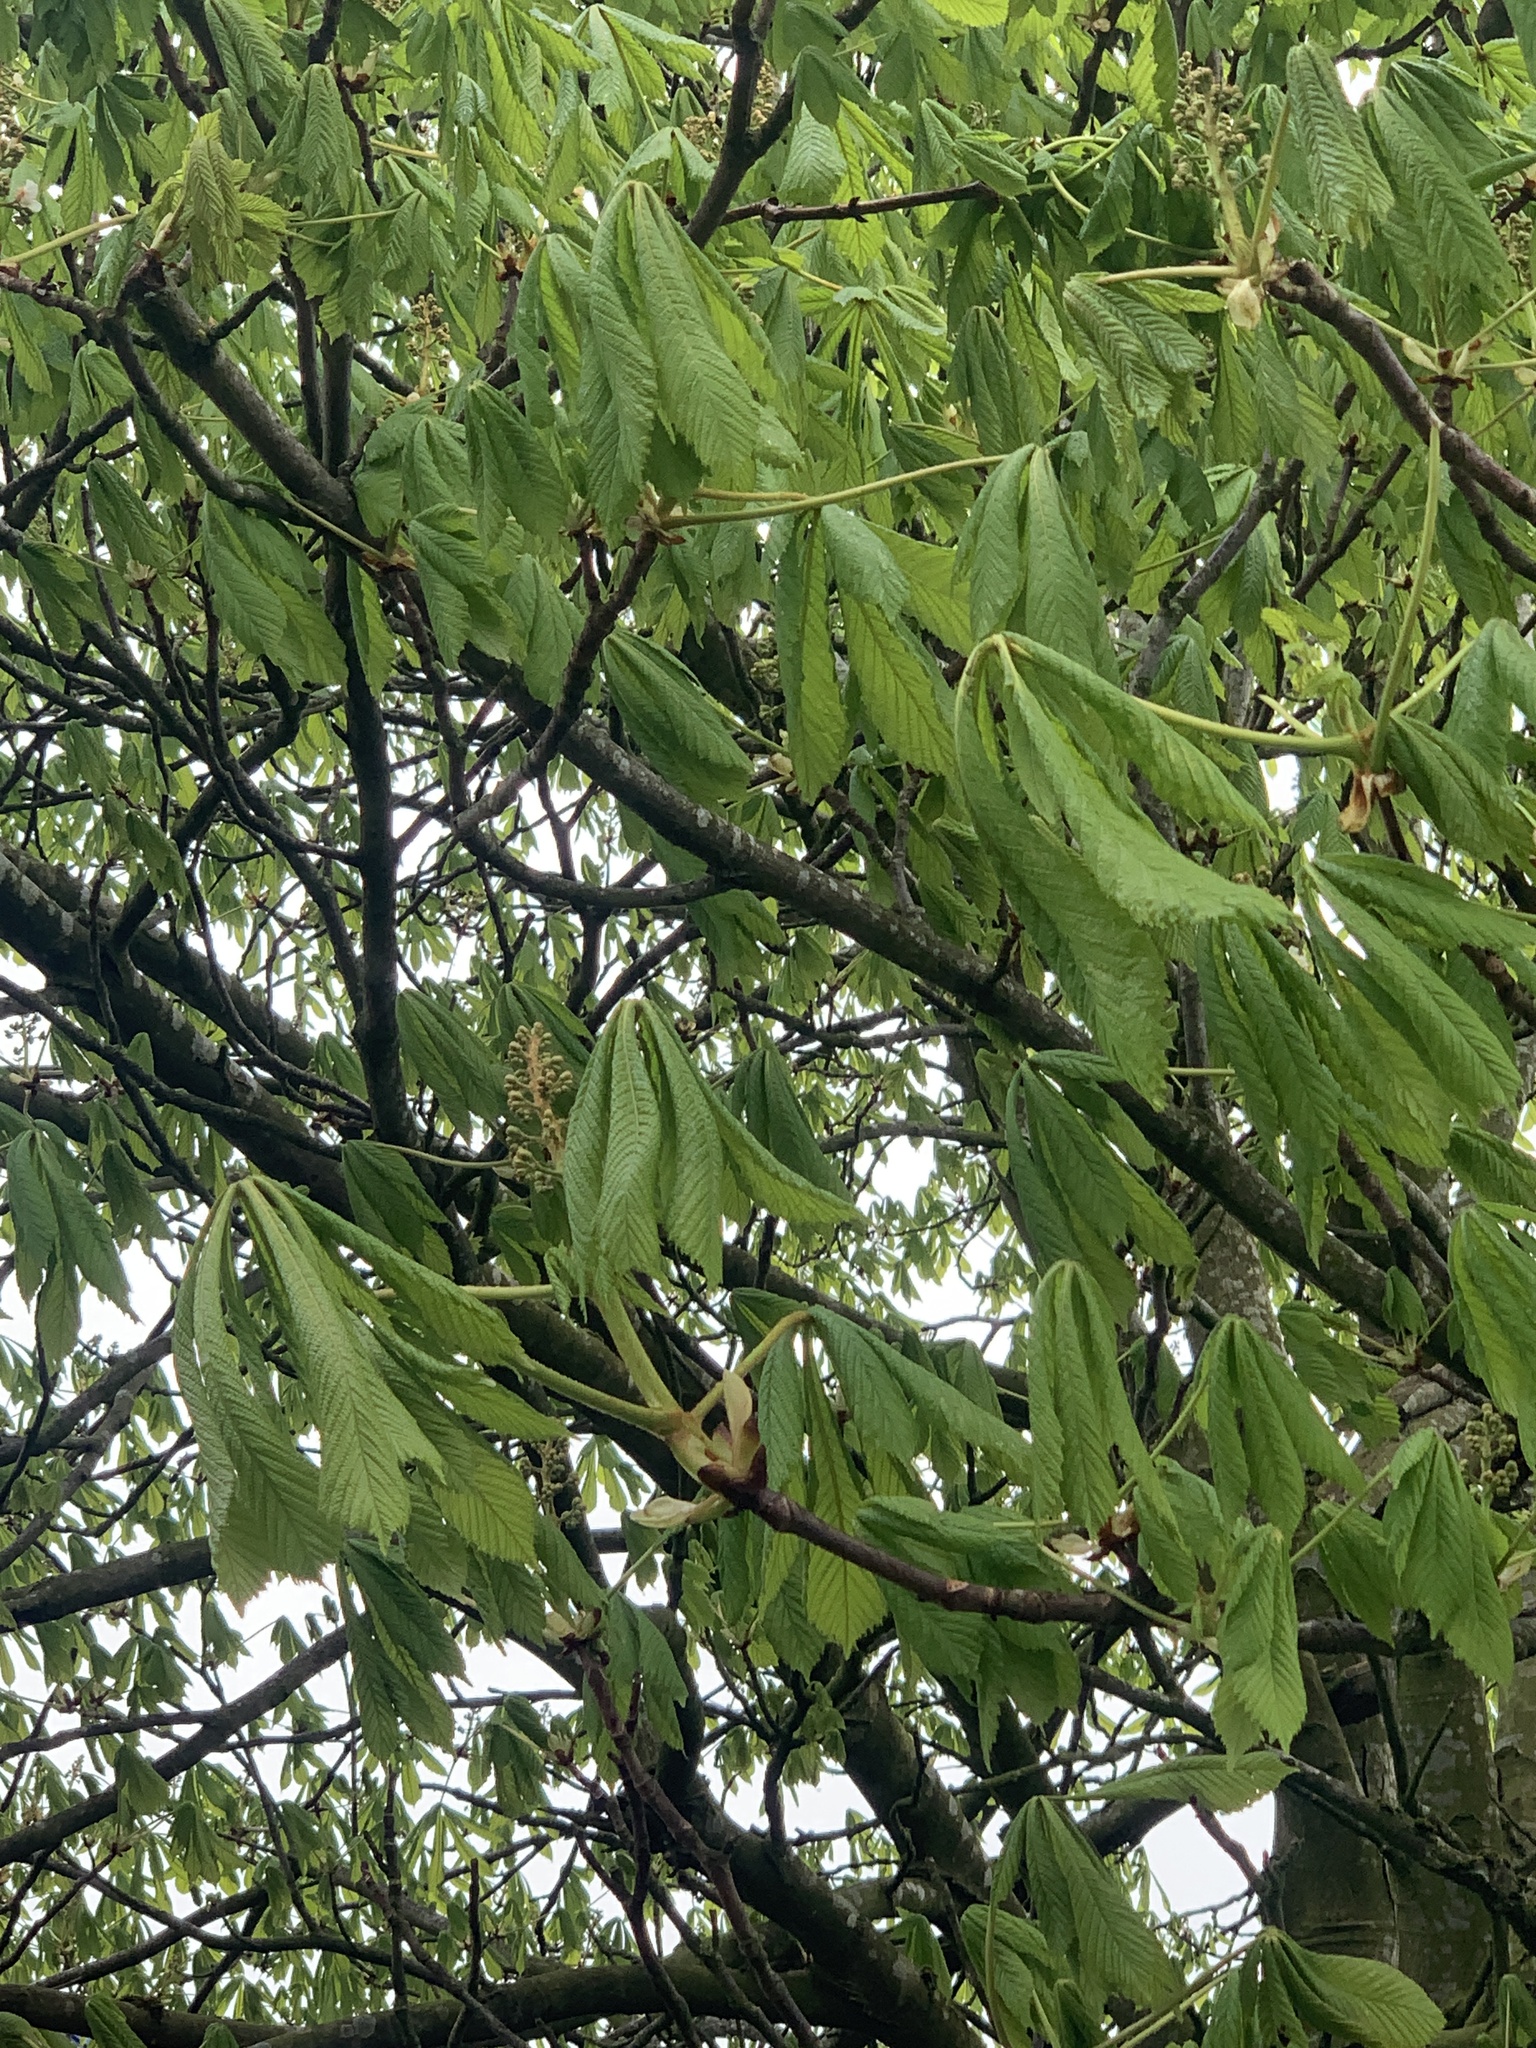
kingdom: Plantae
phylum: Tracheophyta
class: Magnoliopsida
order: Sapindales
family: Sapindaceae
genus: Aesculus
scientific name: Aesculus hippocastanum
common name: Horse-chestnut
